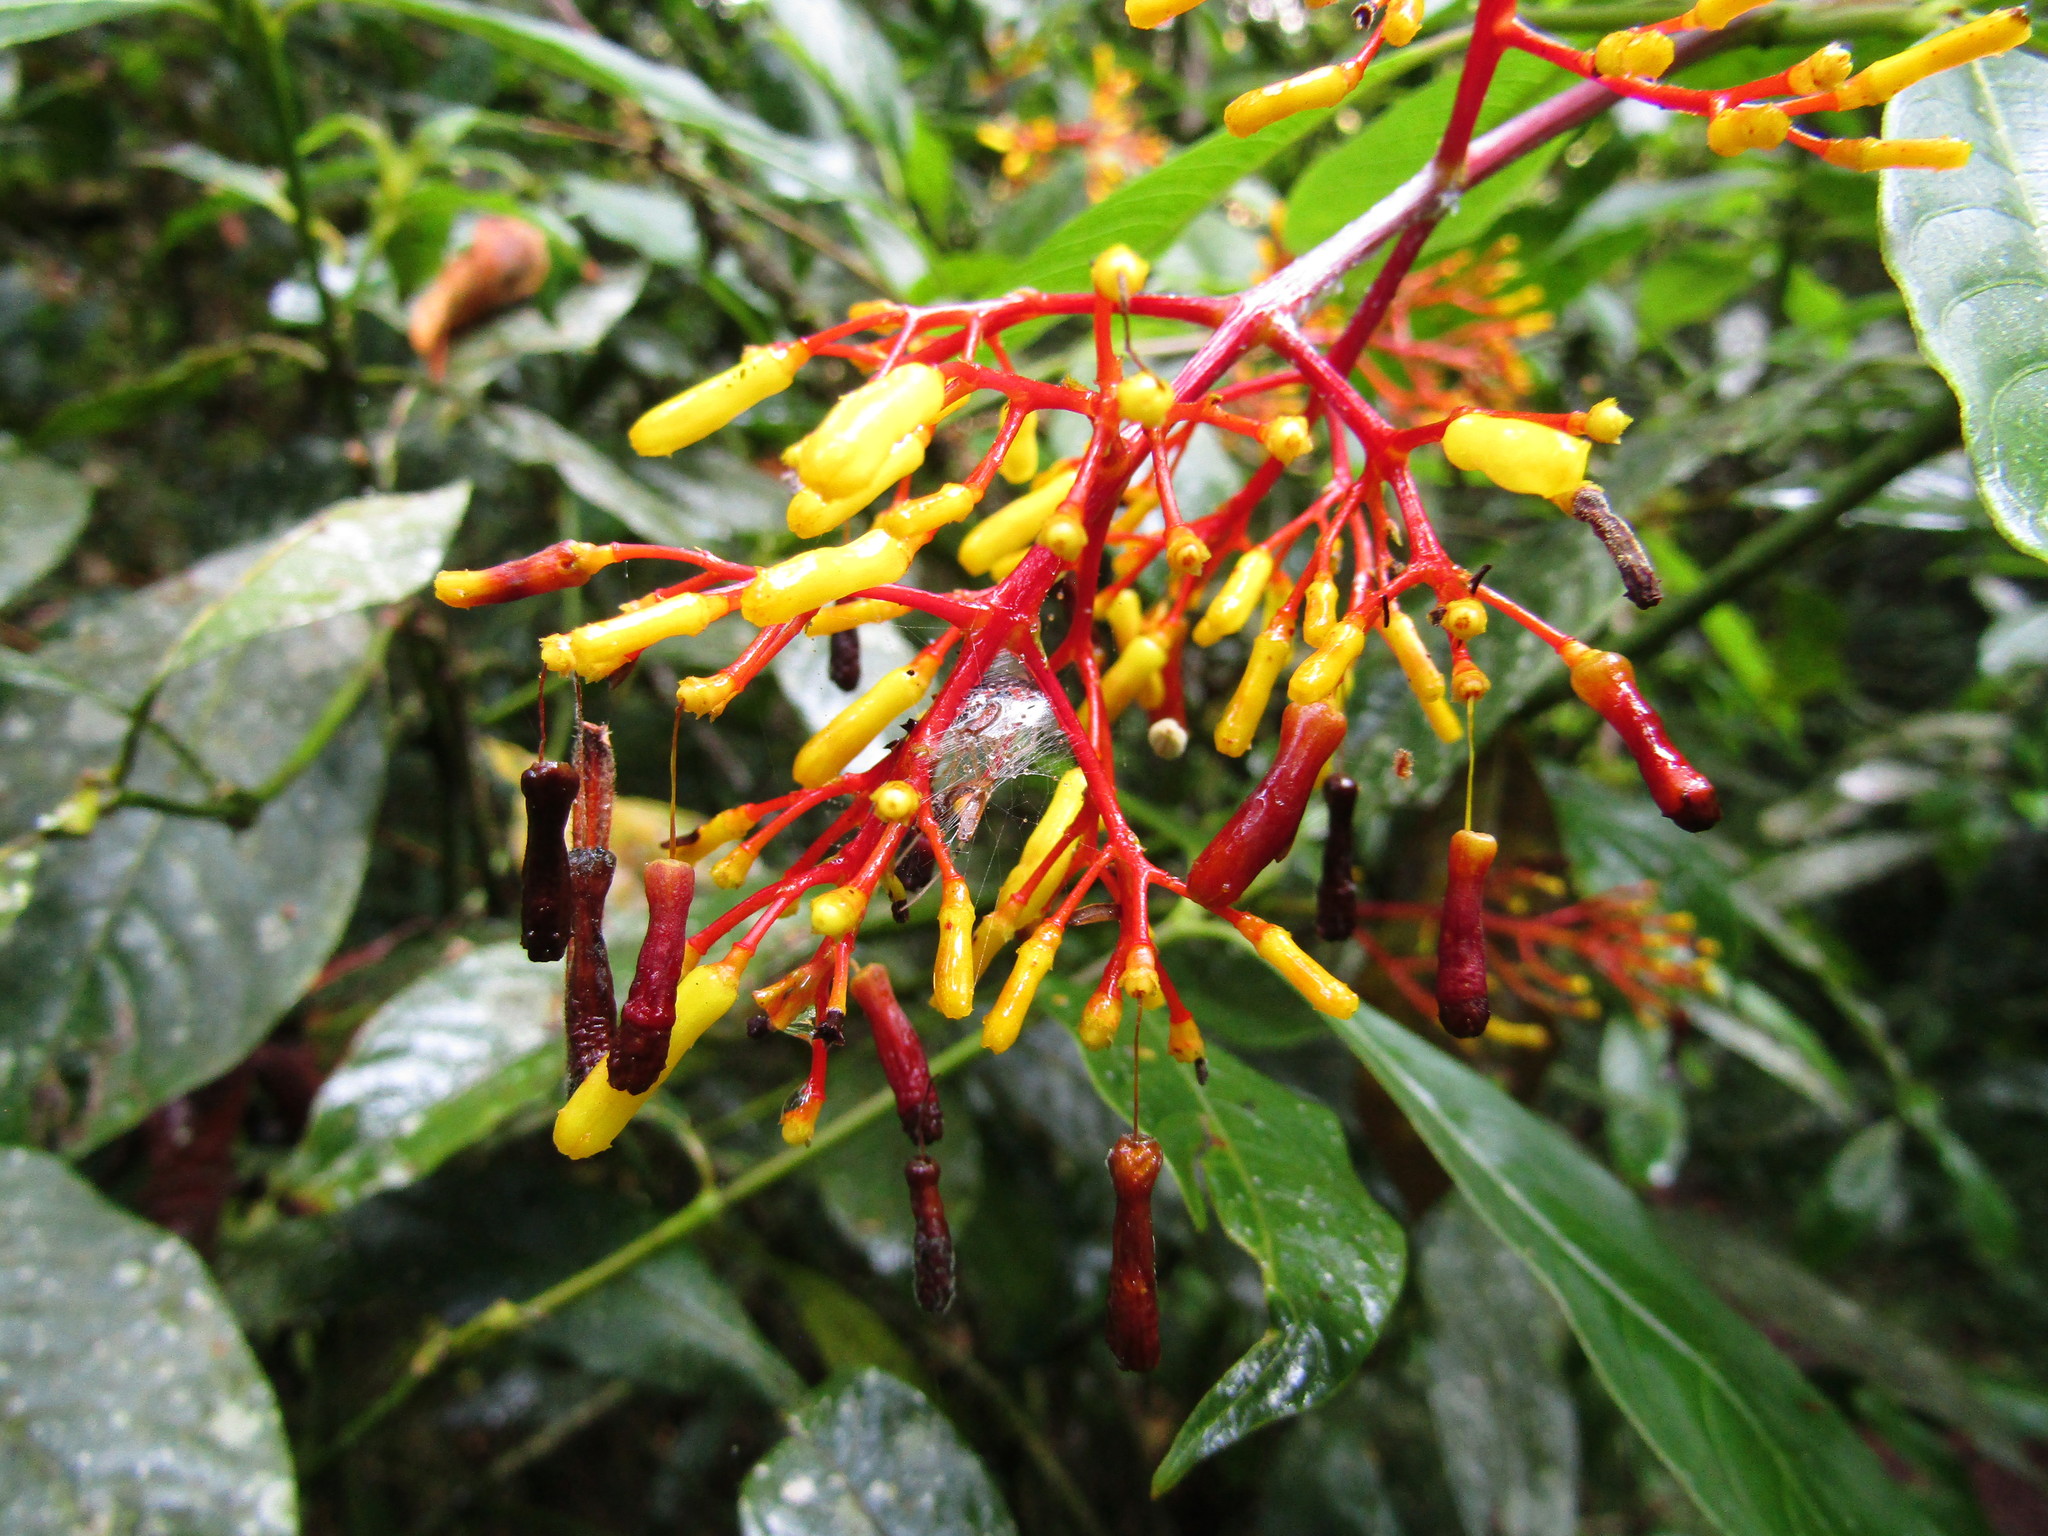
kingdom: Plantae
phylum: Tracheophyta
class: Magnoliopsida
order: Gentianales
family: Rubiaceae
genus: Palicourea
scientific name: Palicourea padifolia
